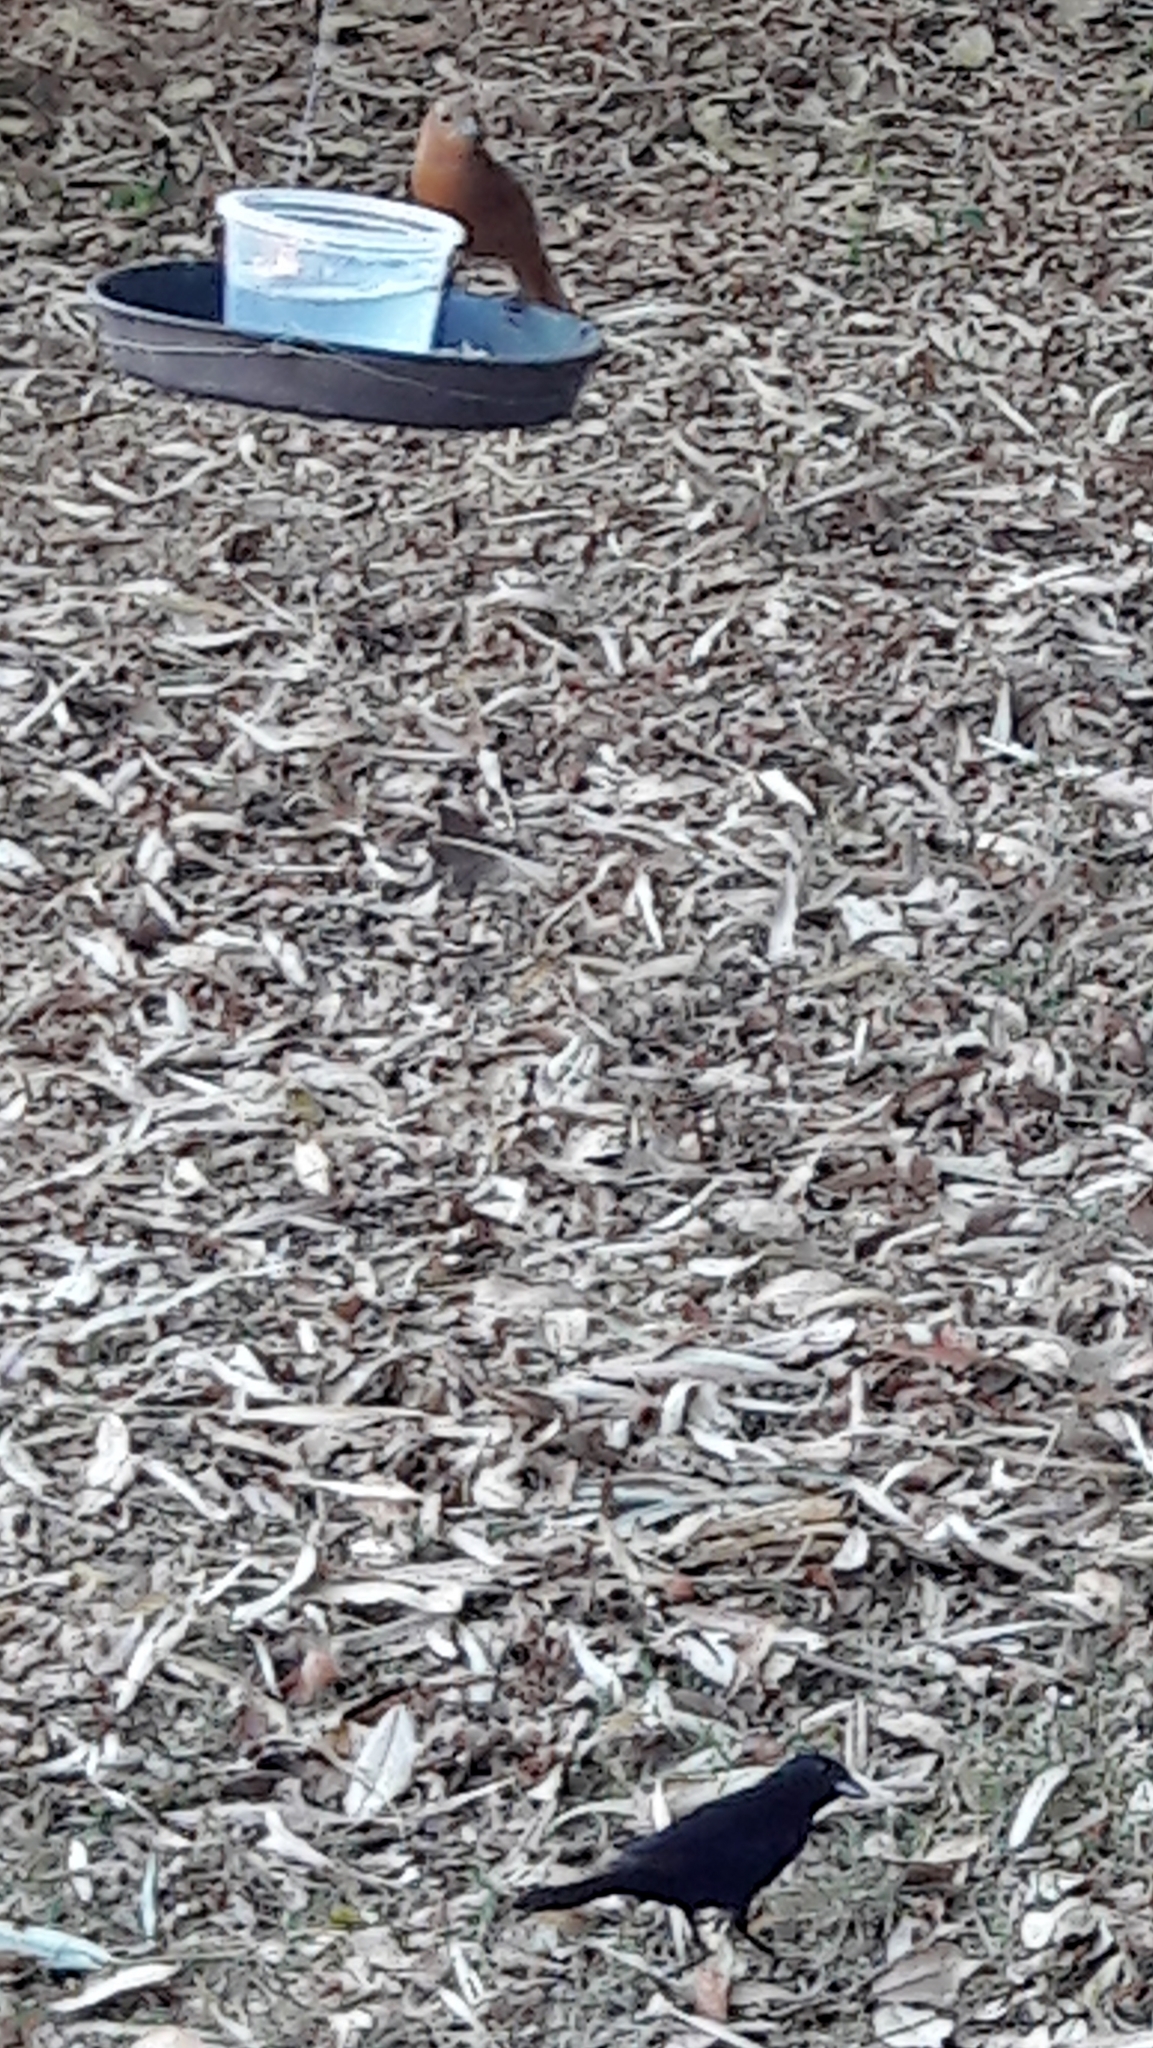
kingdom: Animalia
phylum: Chordata
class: Aves
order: Passeriformes
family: Thraupidae
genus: Tachyphonus
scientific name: Tachyphonus rufus
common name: White-lined tanager
